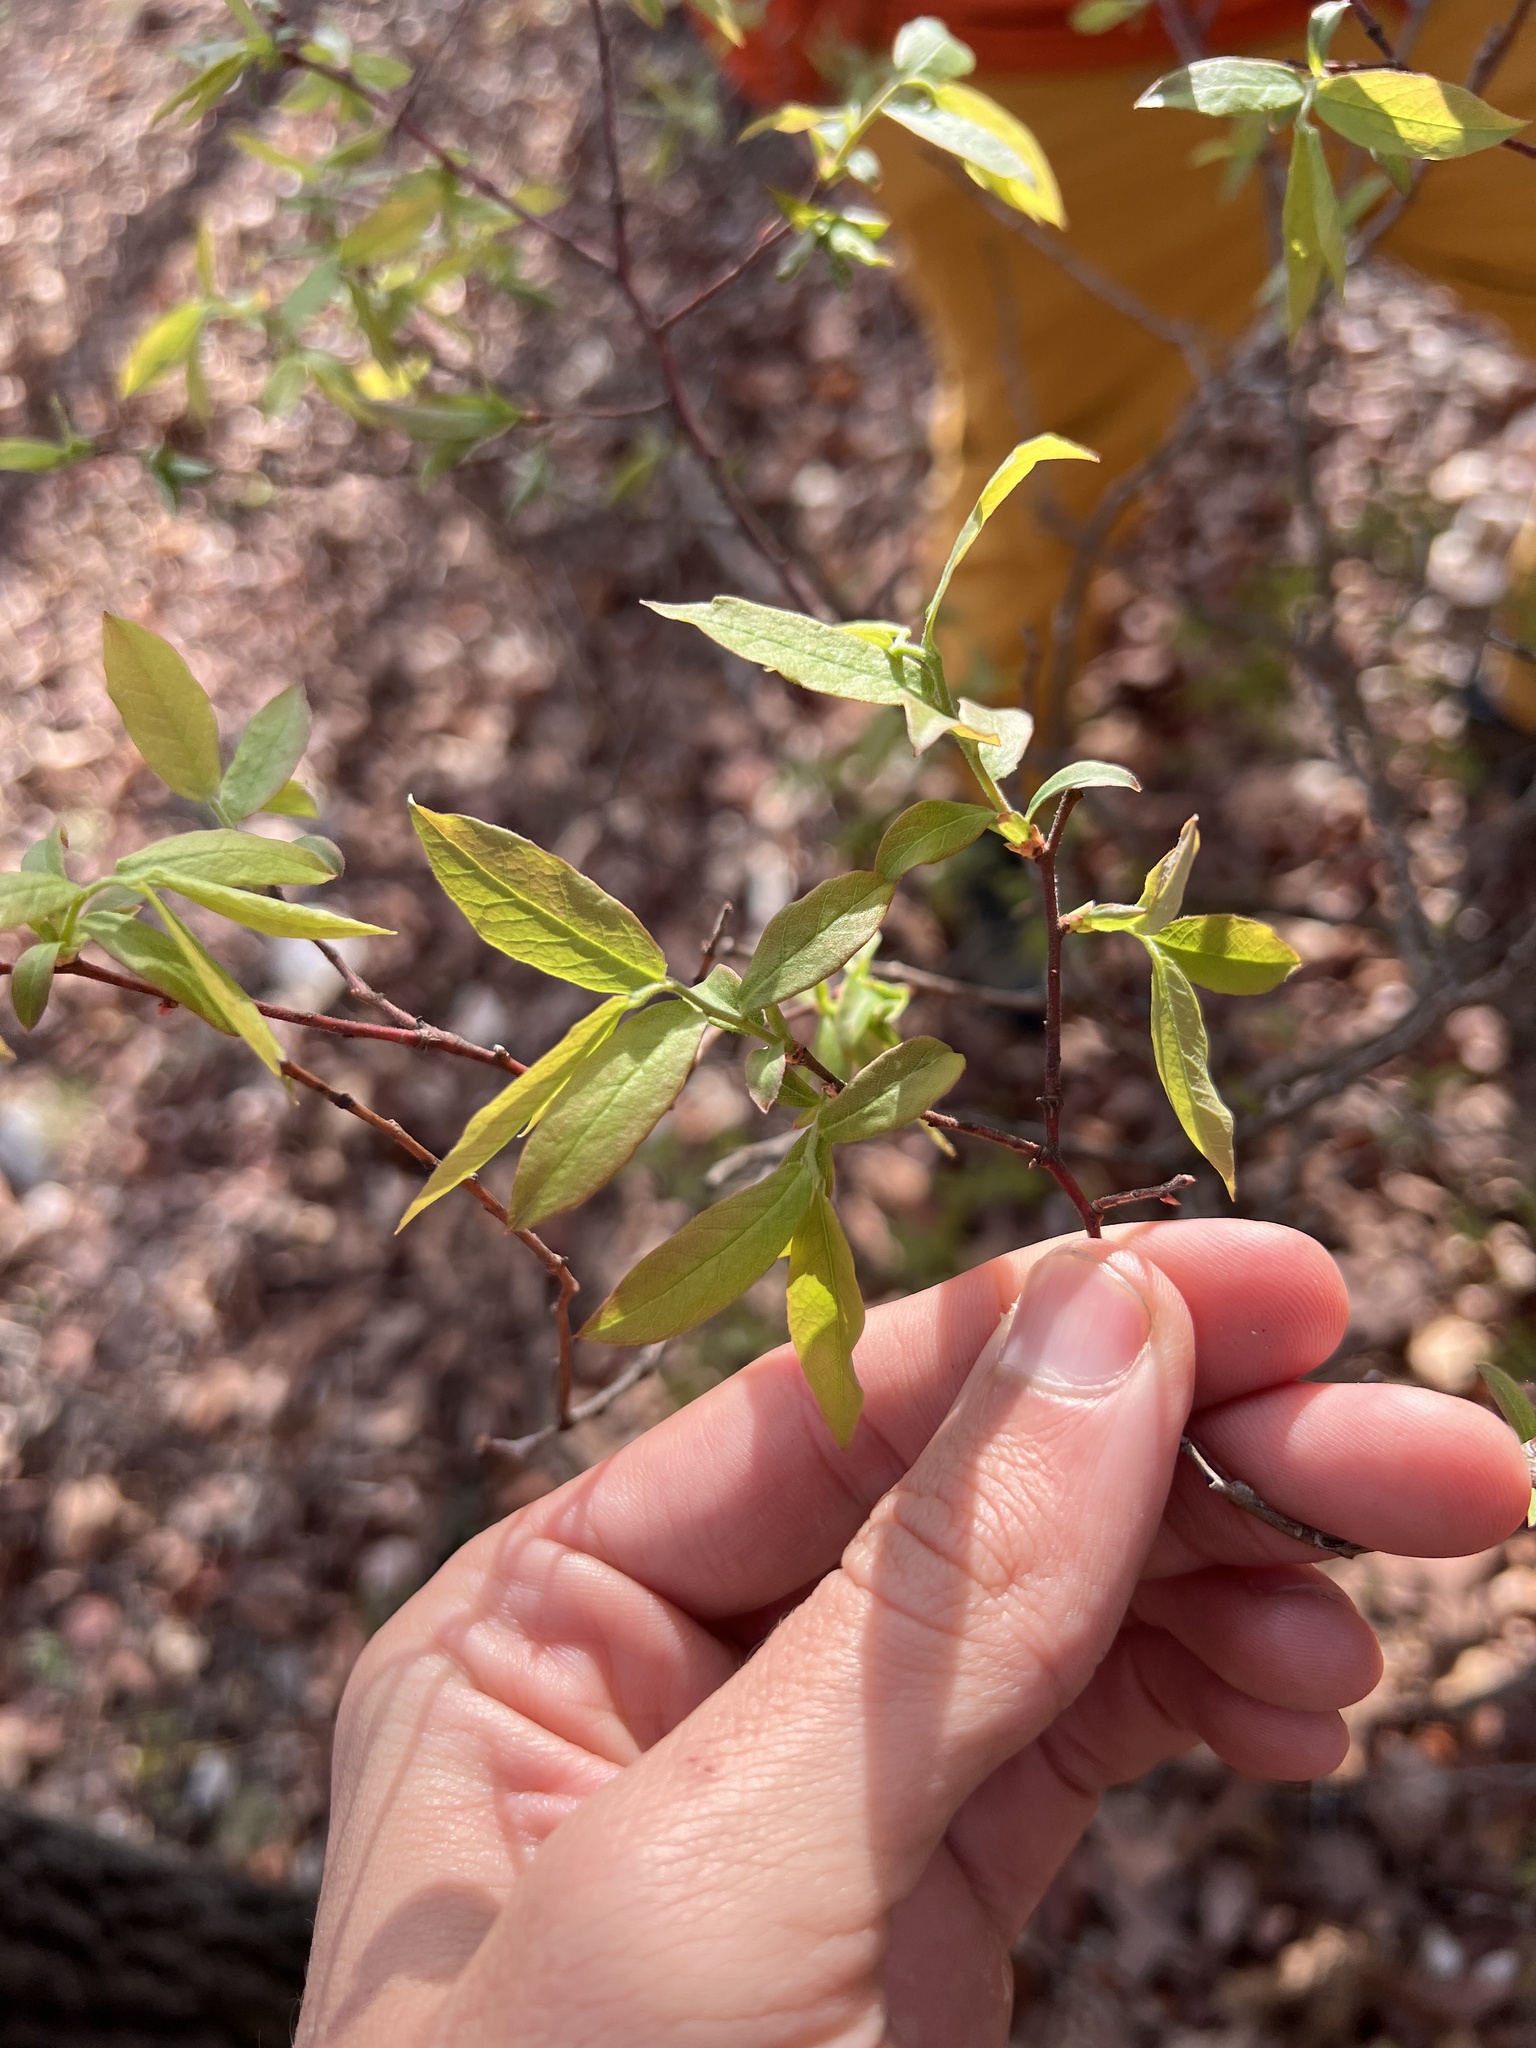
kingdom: Plantae
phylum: Tracheophyta
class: Magnoliopsida
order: Ericales
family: Ericaceae
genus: Vaccinium
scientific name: Vaccinium stamineum
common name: Deerberry
